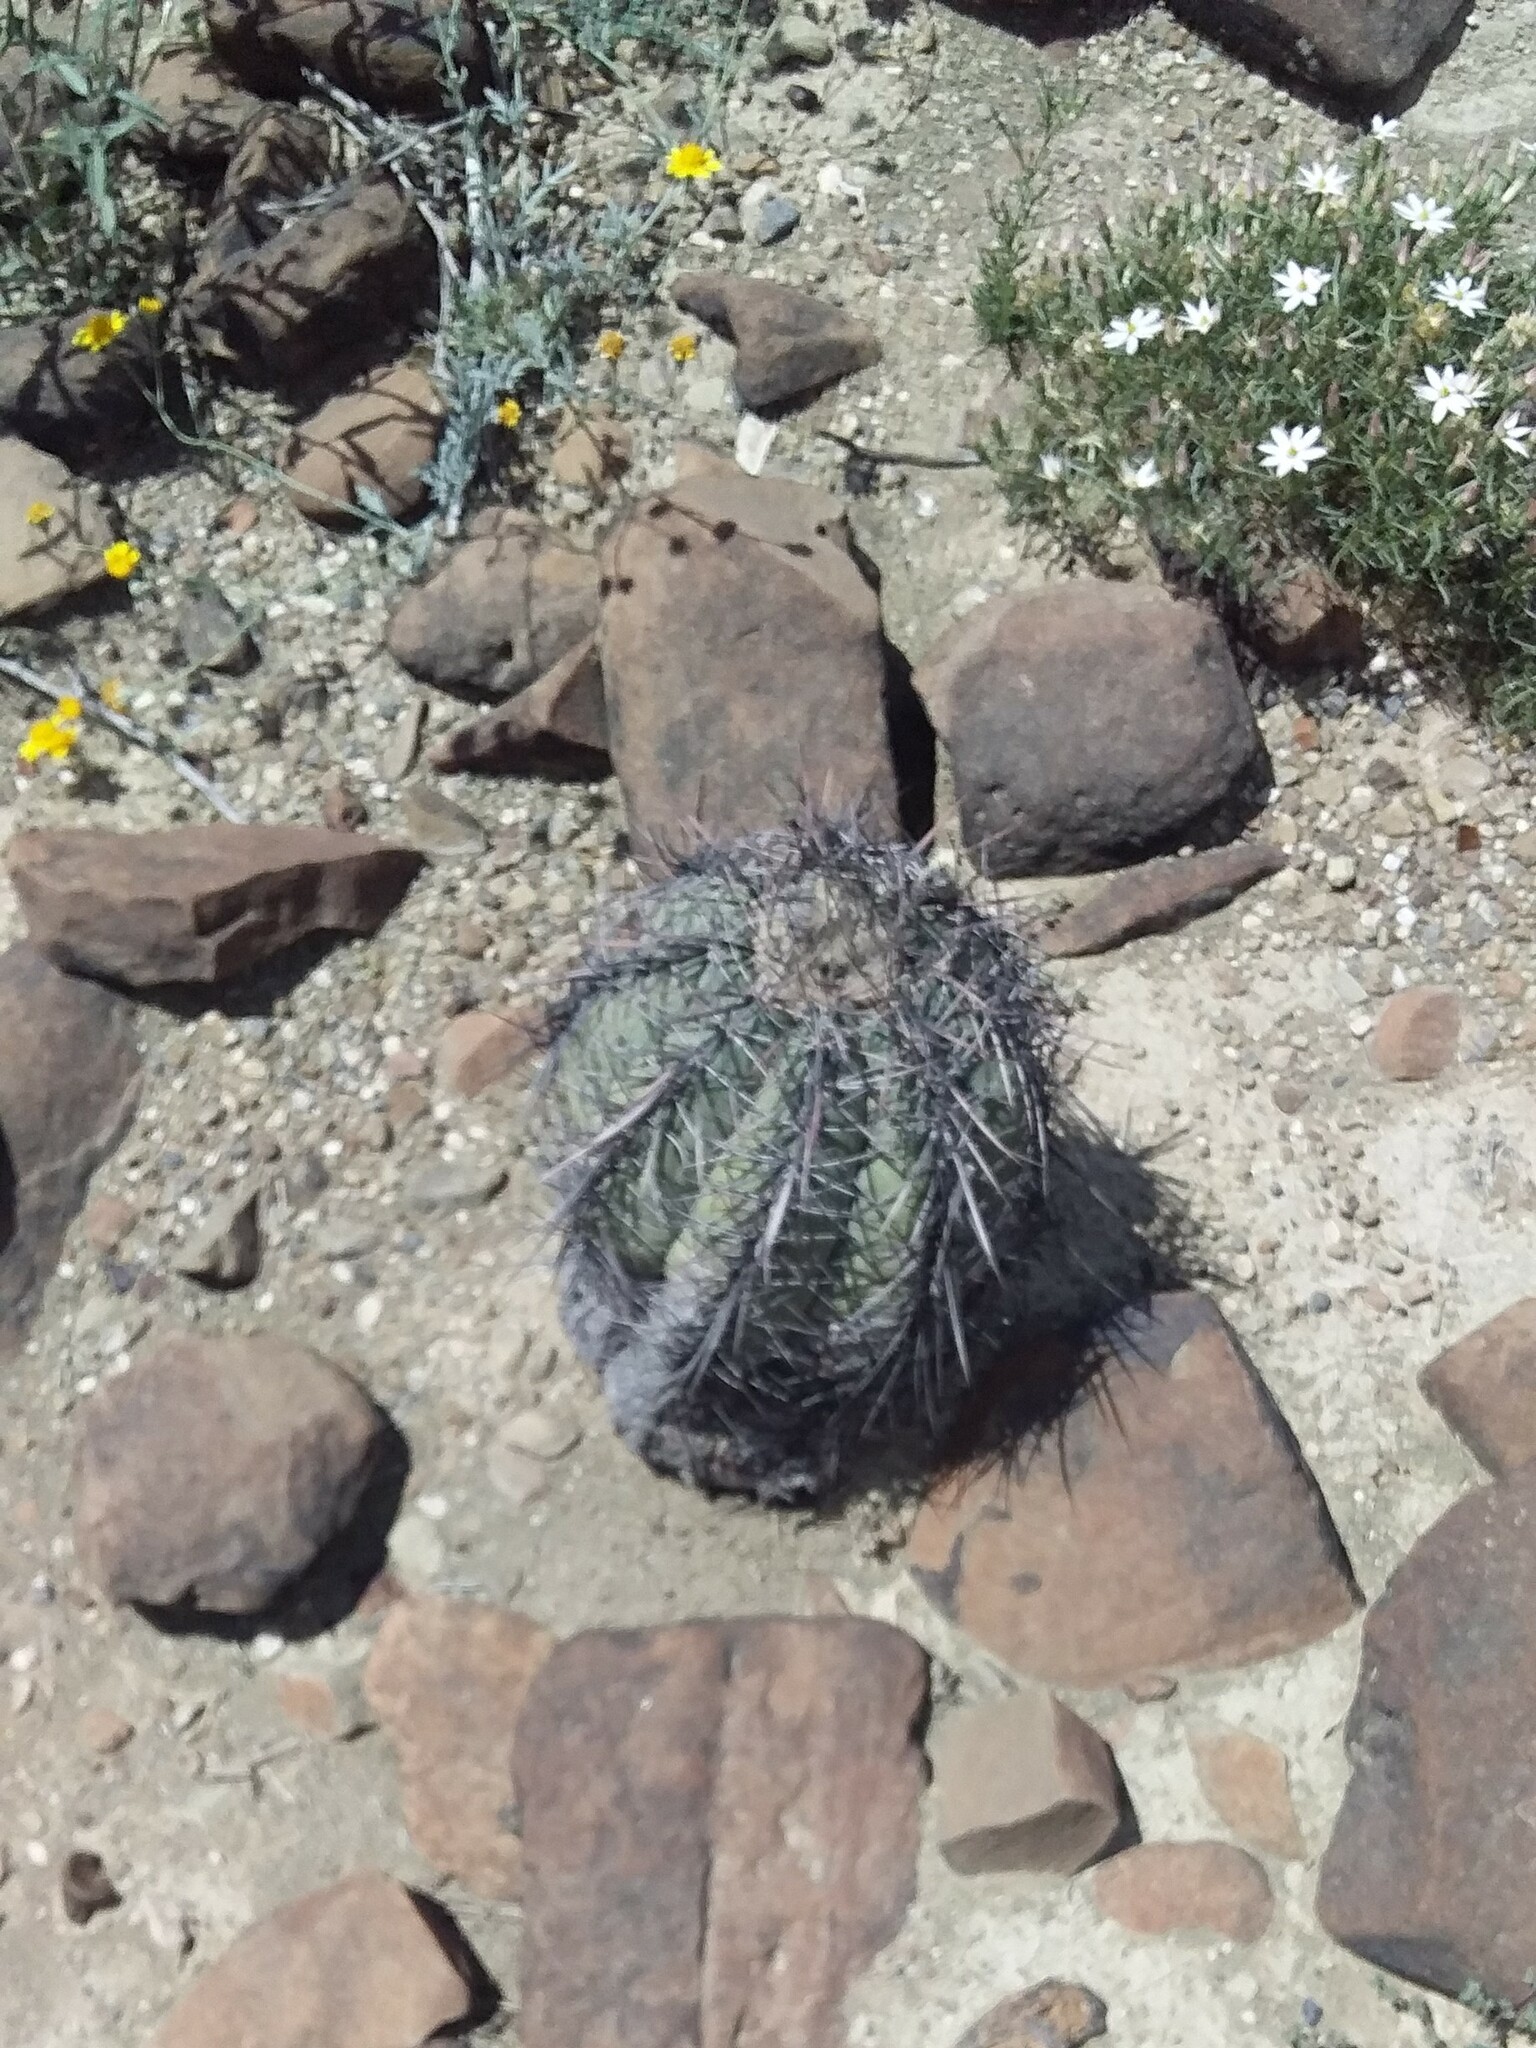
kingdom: Plantae
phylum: Tracheophyta
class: Magnoliopsida
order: Caryophyllales
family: Cactaceae
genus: Echinocactus
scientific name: Echinocactus horizonthalonius
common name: Devilshead
